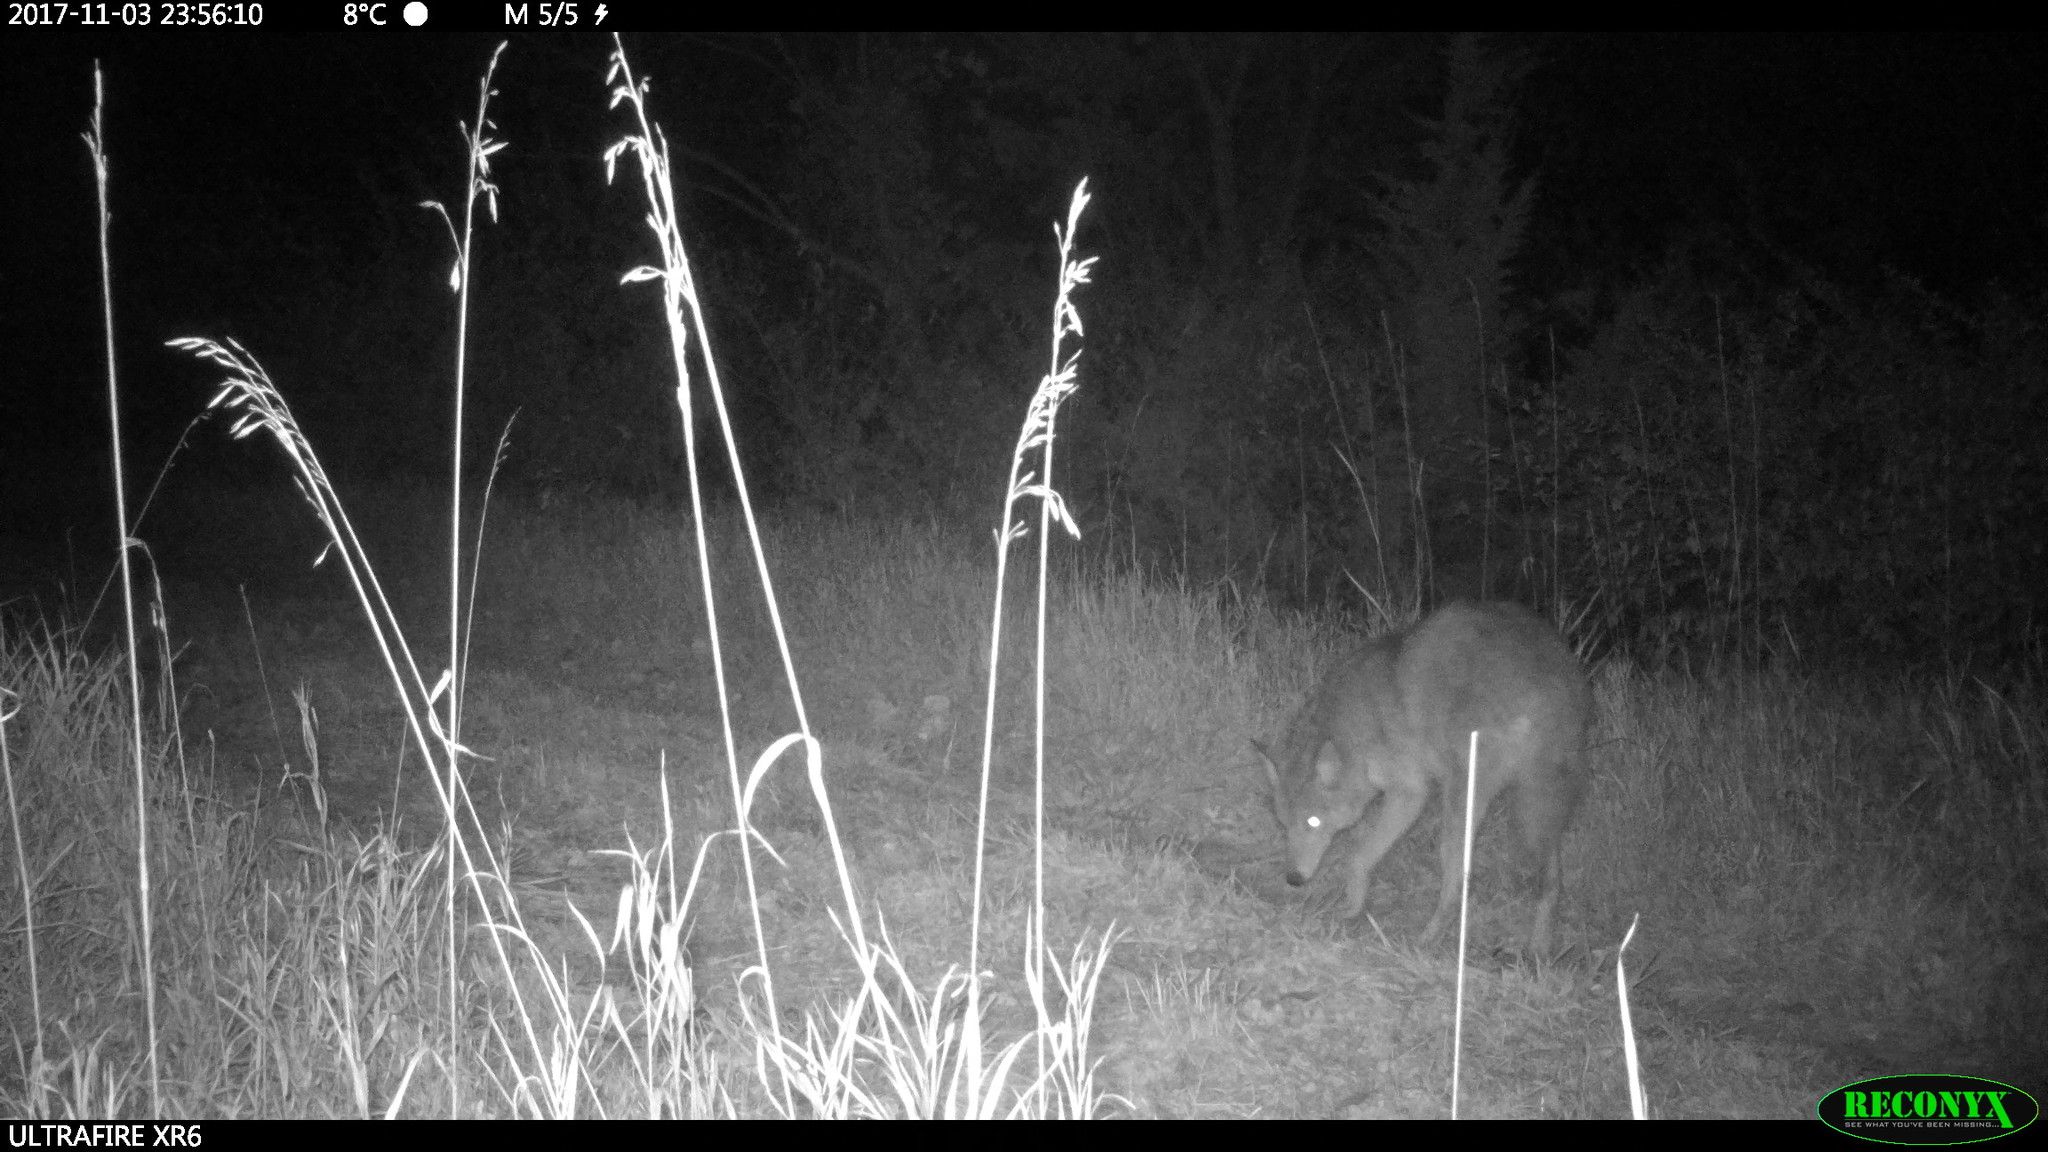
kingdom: Animalia
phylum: Chordata
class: Mammalia
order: Carnivora
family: Canidae
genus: Canis
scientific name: Canis latrans
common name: Coyote
